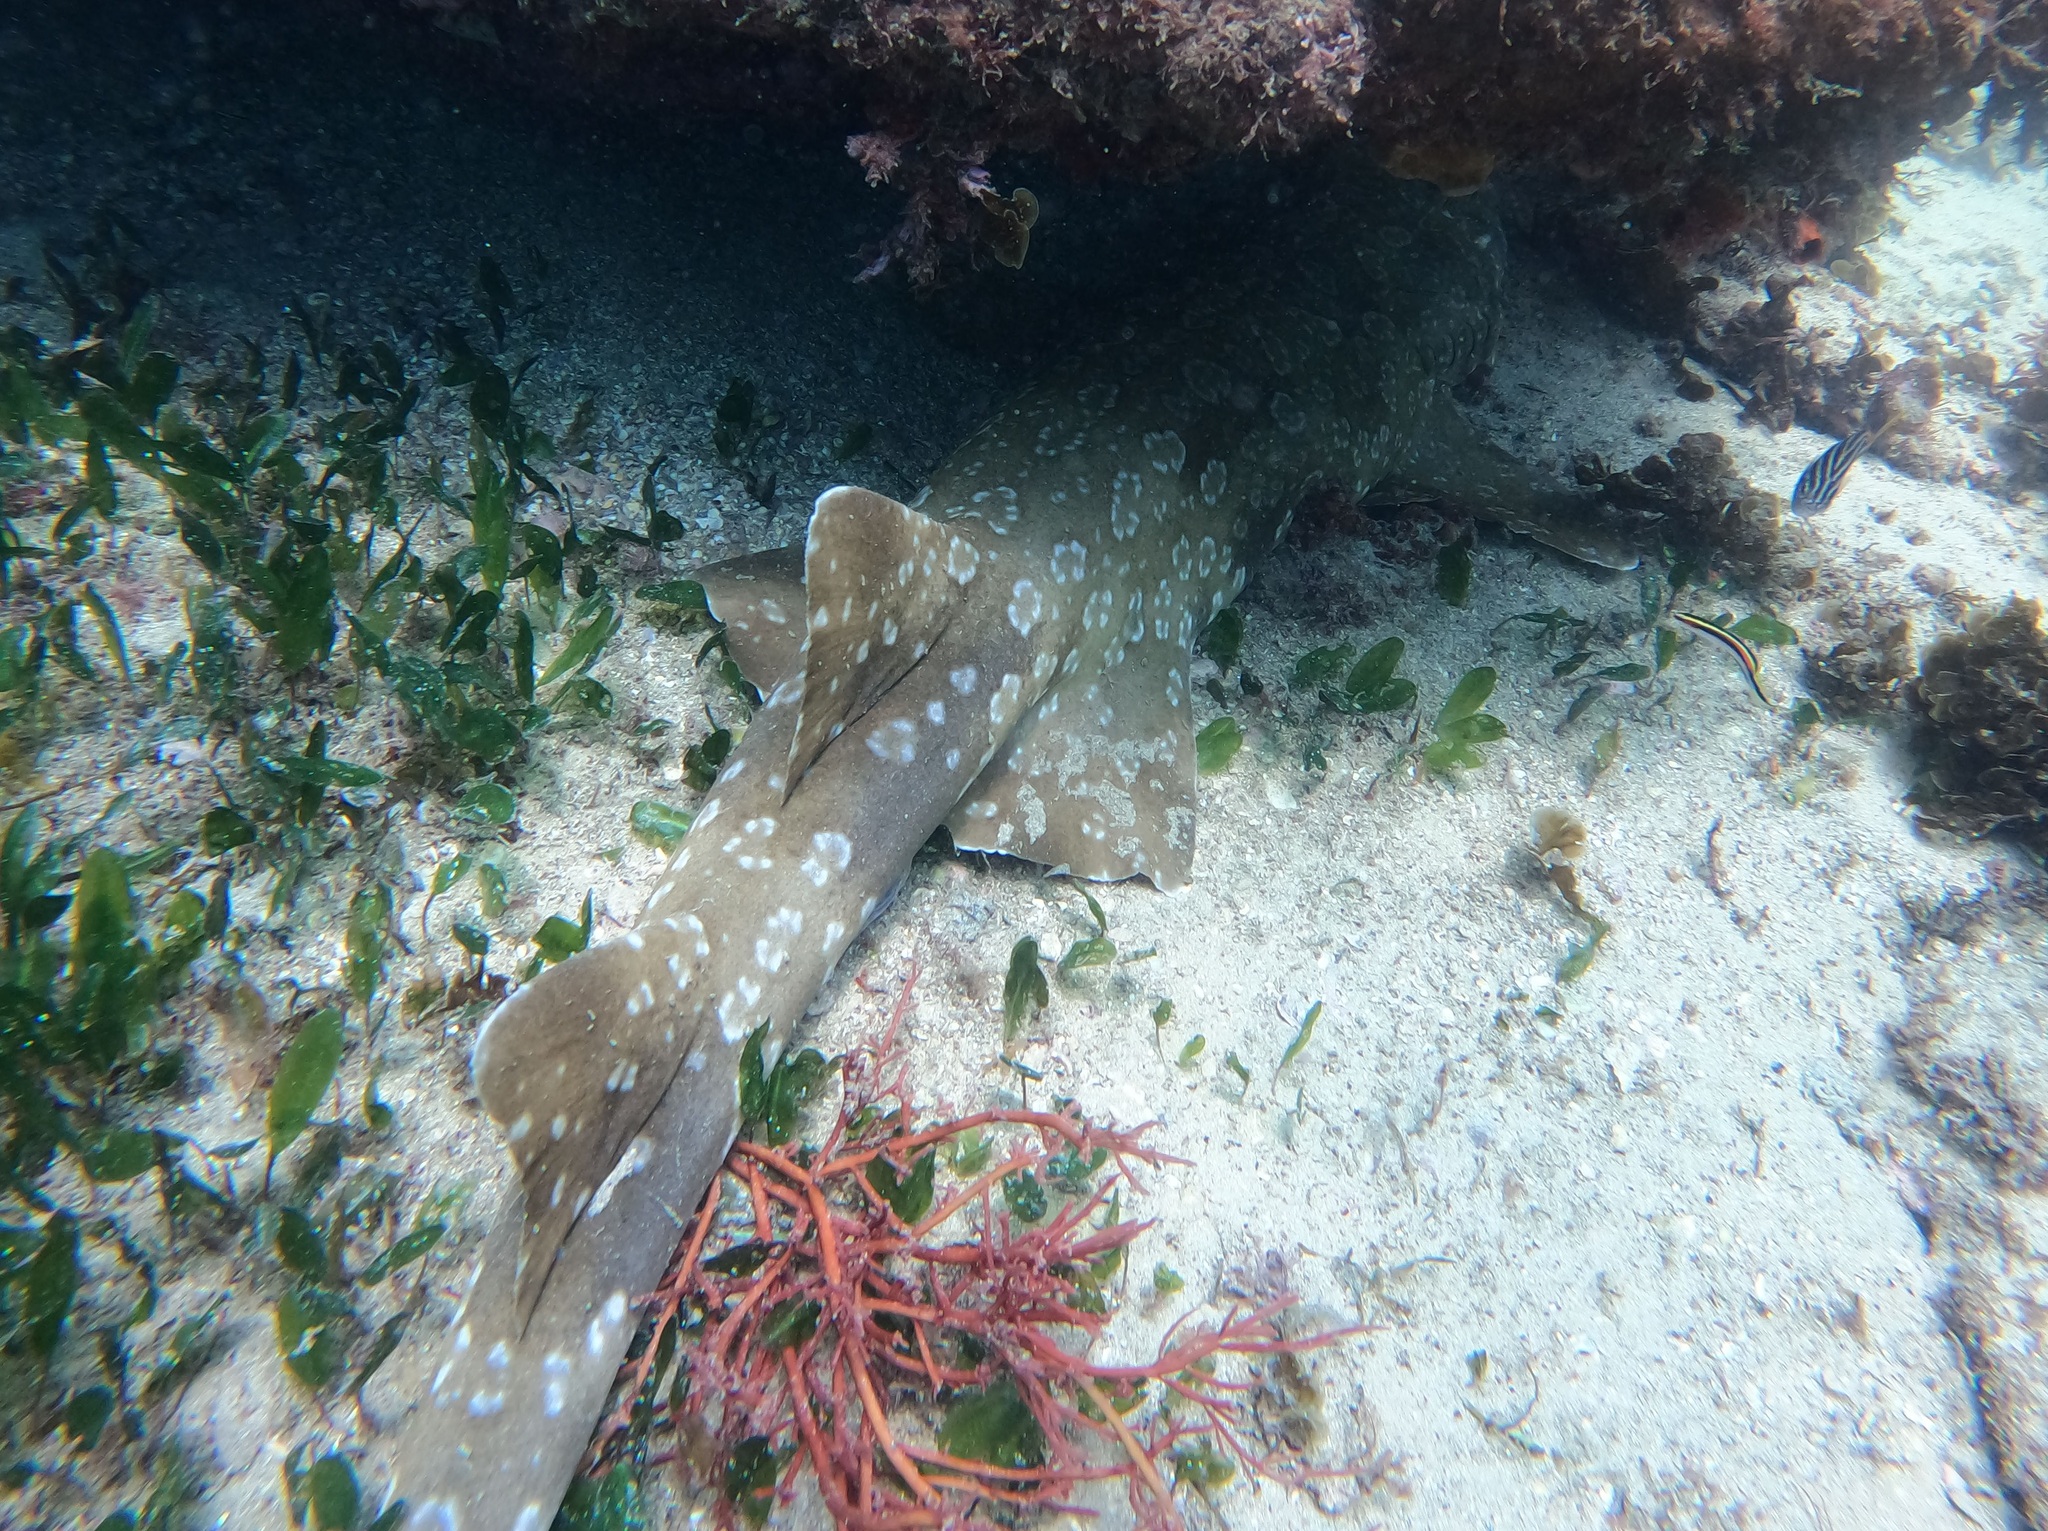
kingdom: Animalia
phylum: Chordata
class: Elasmobranchii
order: Orectolobiformes
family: Orectolobidae
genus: Orectolobus
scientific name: Orectolobus maculatus
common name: Spotted wobbegong
